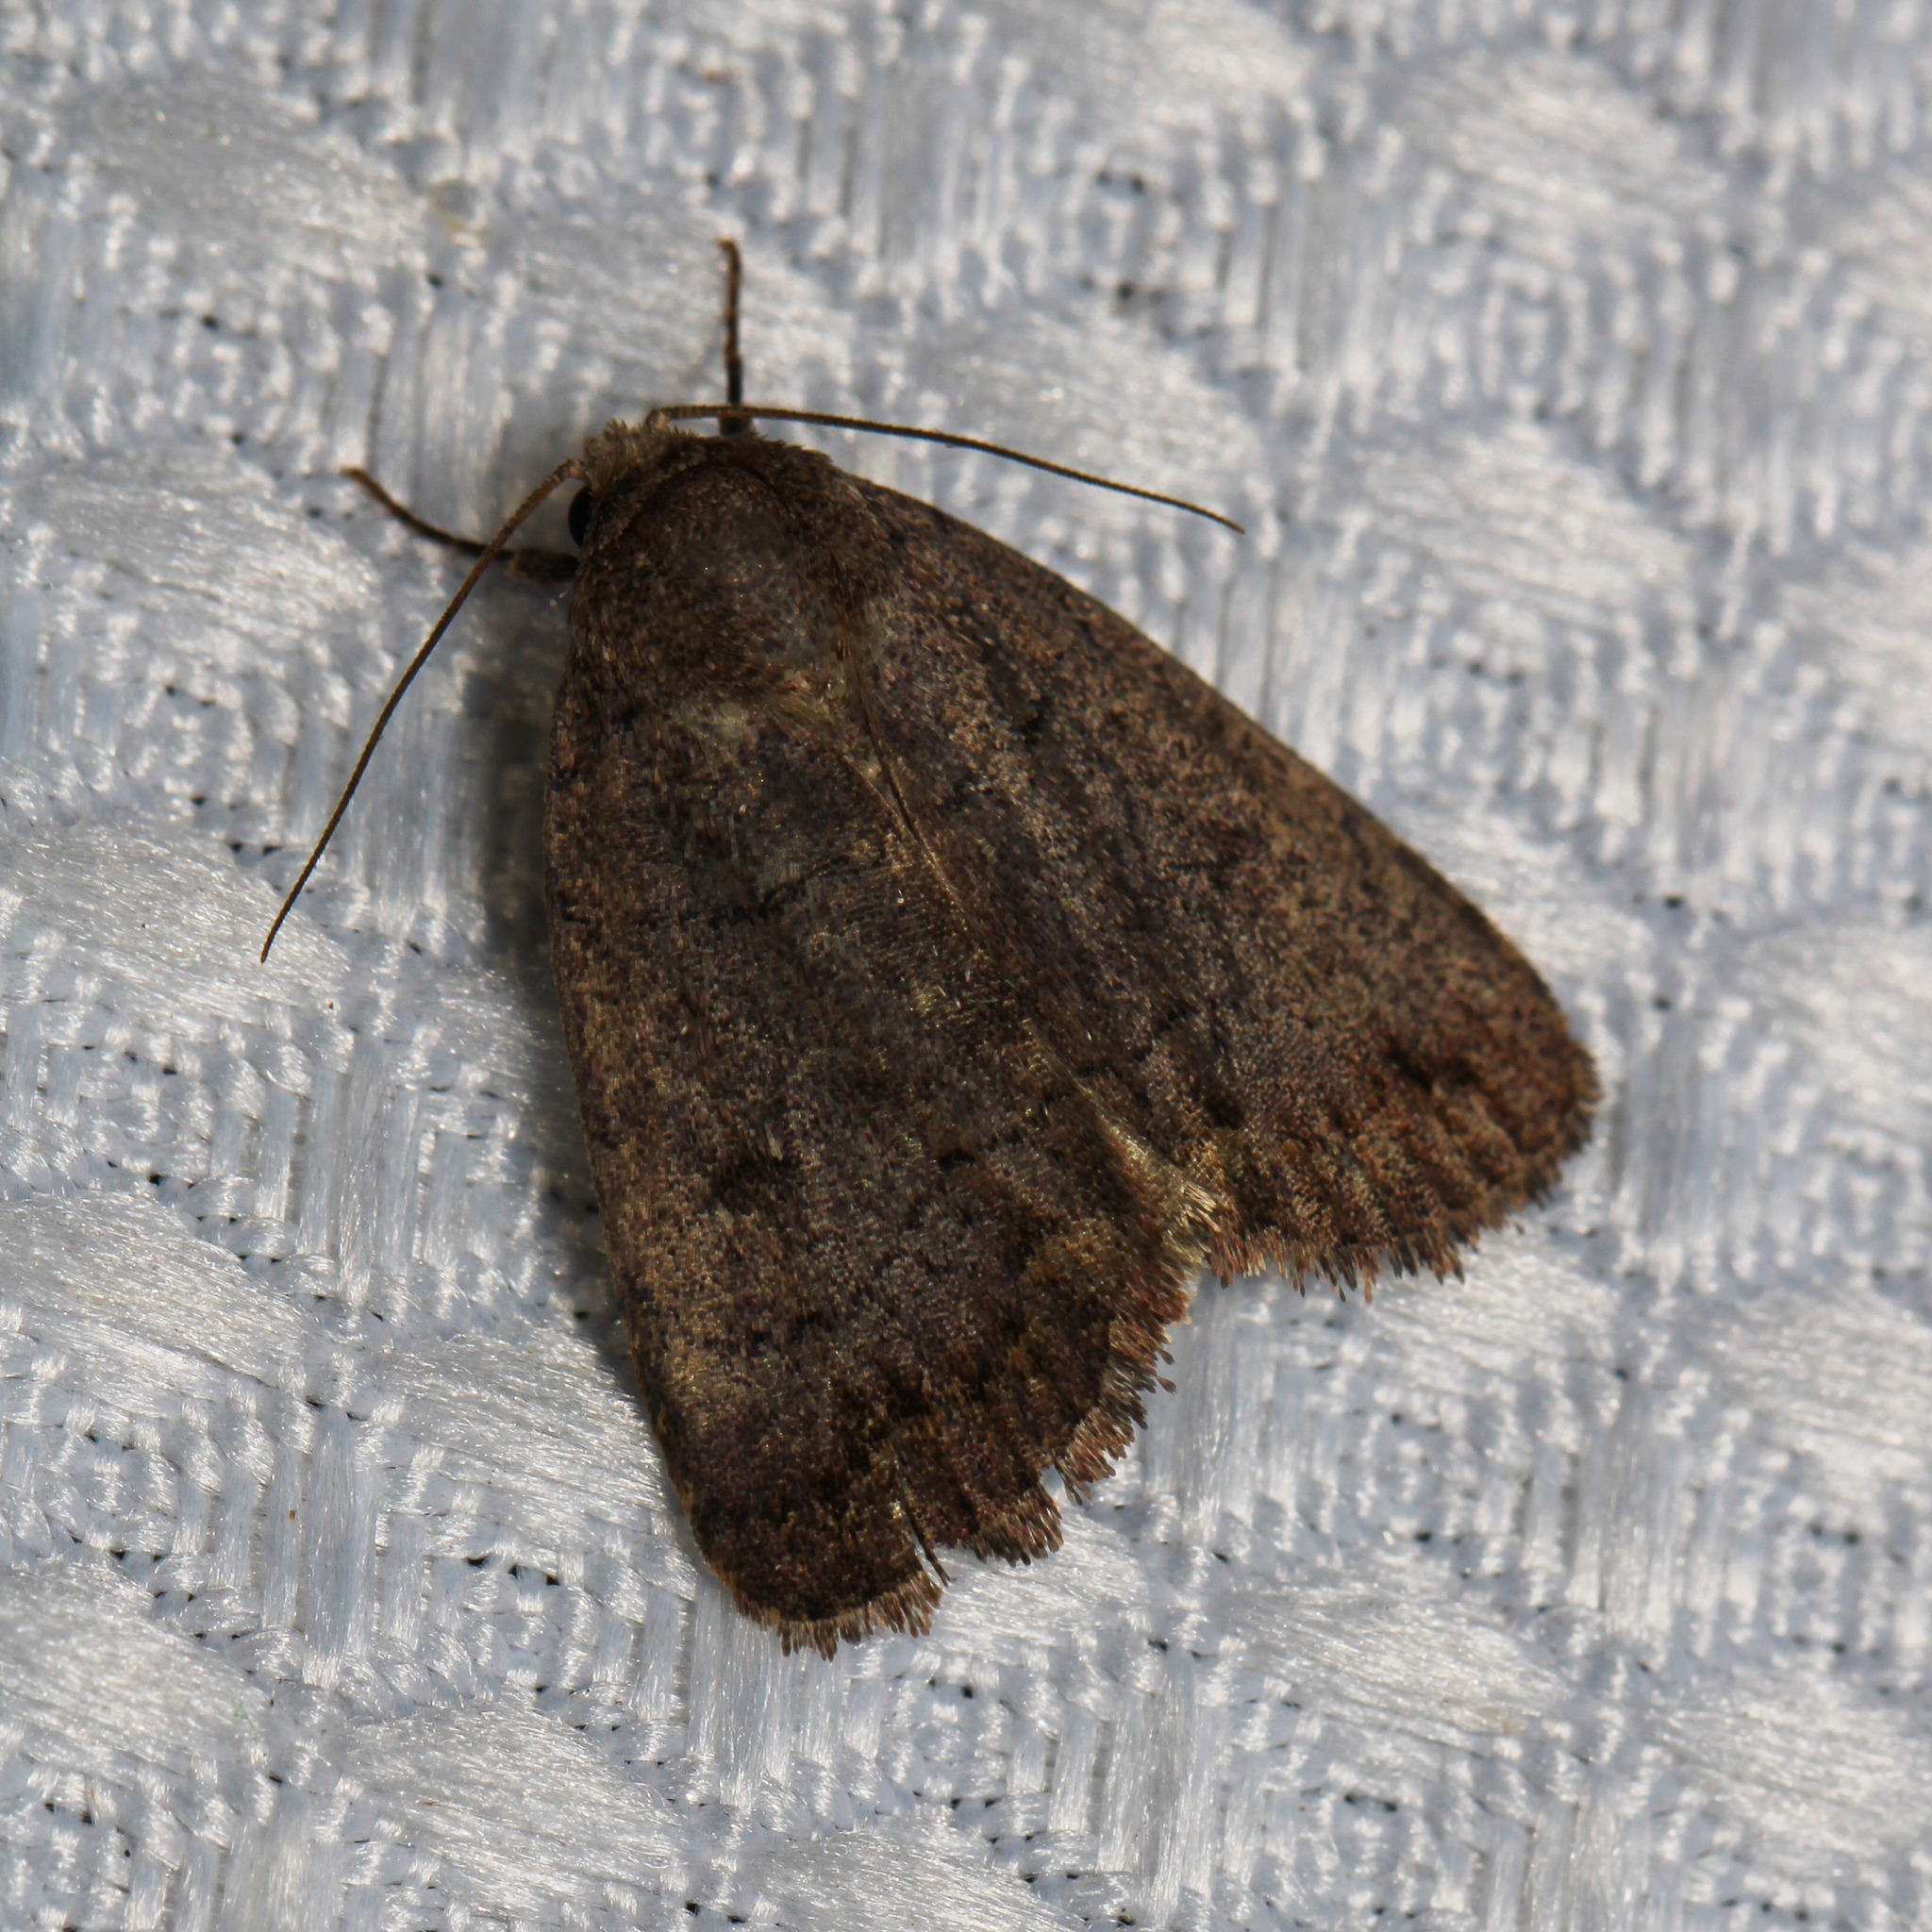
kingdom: Animalia
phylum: Arthropoda
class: Insecta
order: Lepidoptera
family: Noctuidae
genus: Athetis
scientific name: Athetis tarda
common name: Slowpoke moth
